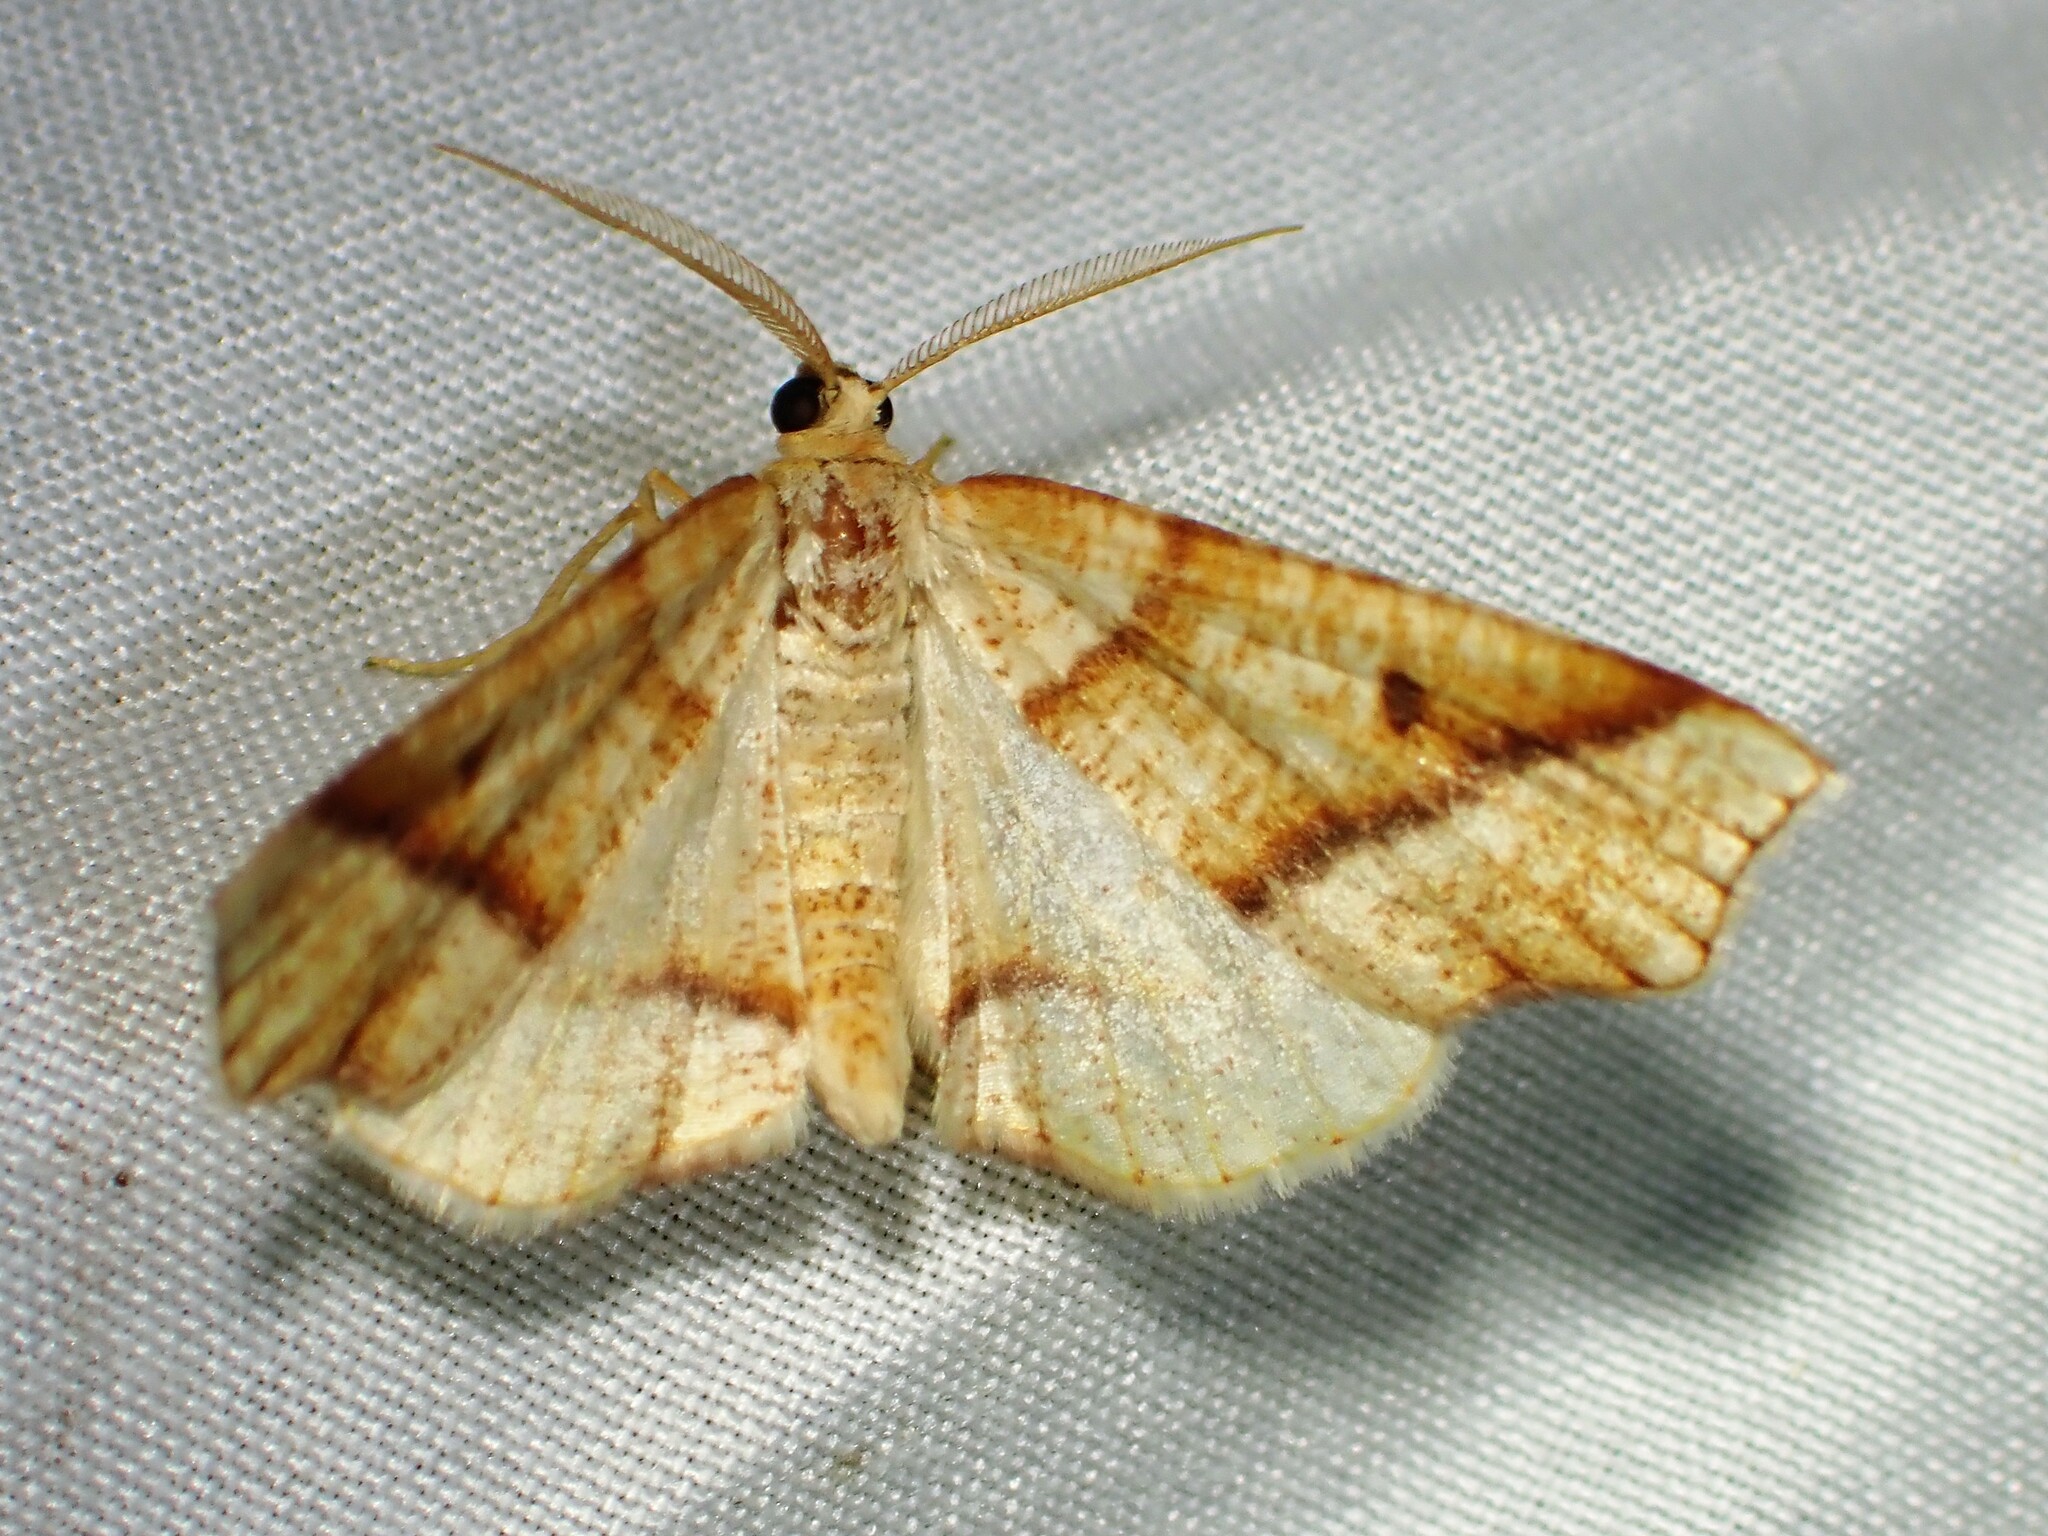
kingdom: Animalia
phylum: Arthropoda
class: Insecta
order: Lepidoptera
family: Geometridae
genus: Plagodis
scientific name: Plagodis alcoolaria
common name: Hollow-spotted plagodis
